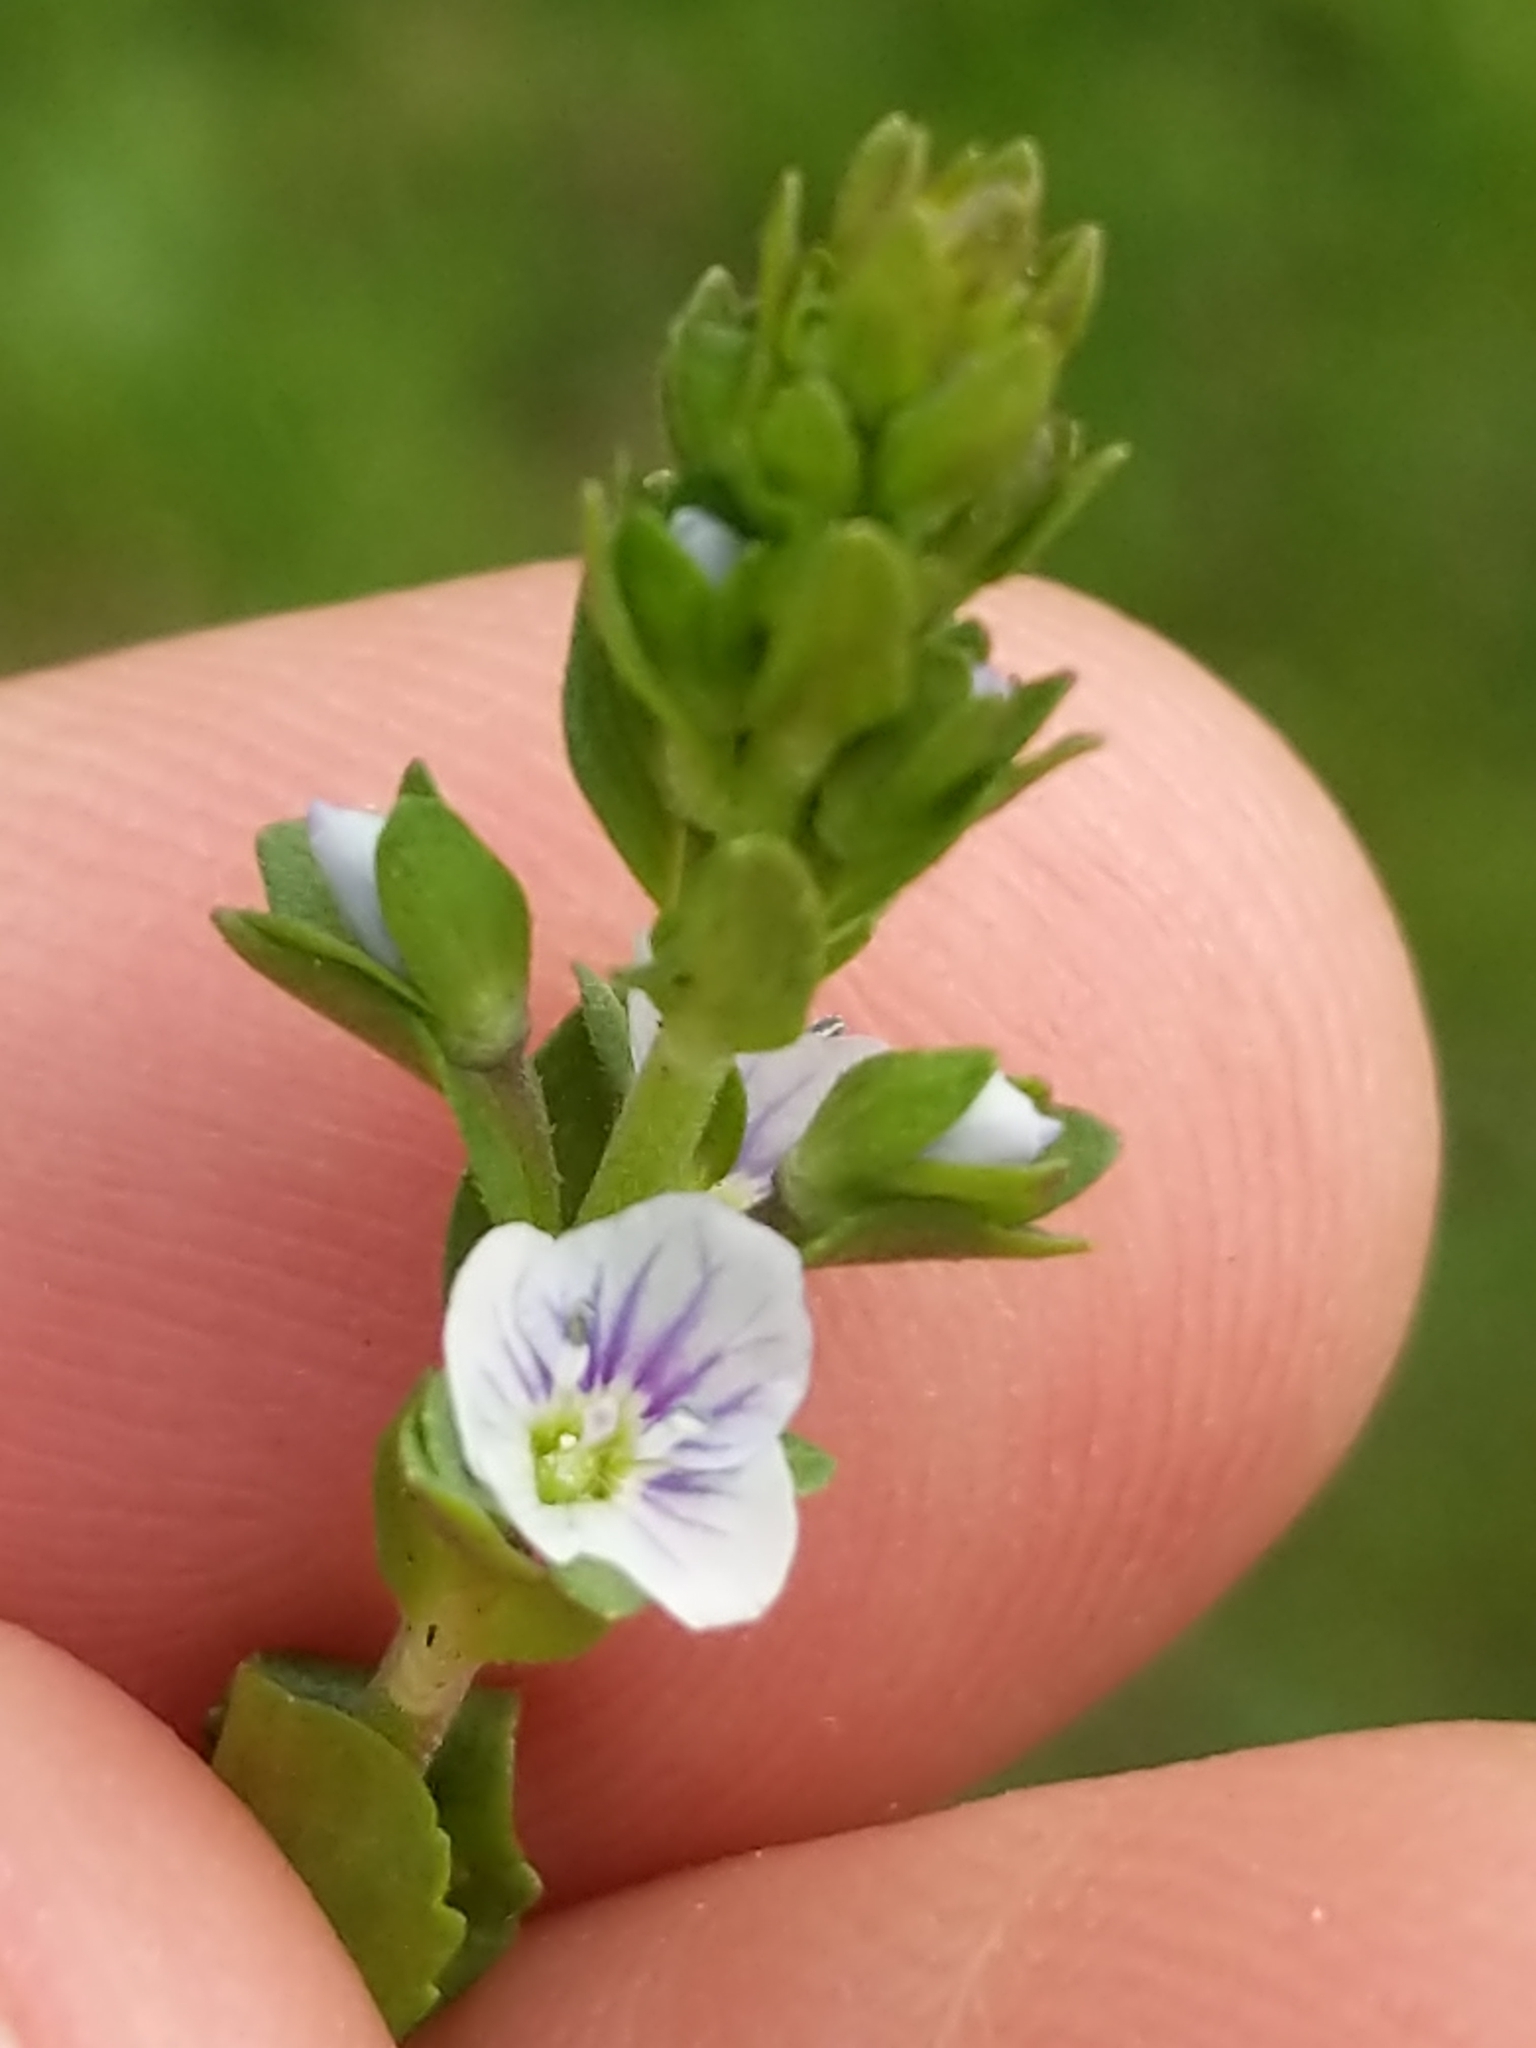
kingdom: Plantae
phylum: Tracheophyta
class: Magnoliopsida
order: Lamiales
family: Plantaginaceae
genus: Veronica
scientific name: Veronica serpyllifolia
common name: Thyme-leaved speedwell
